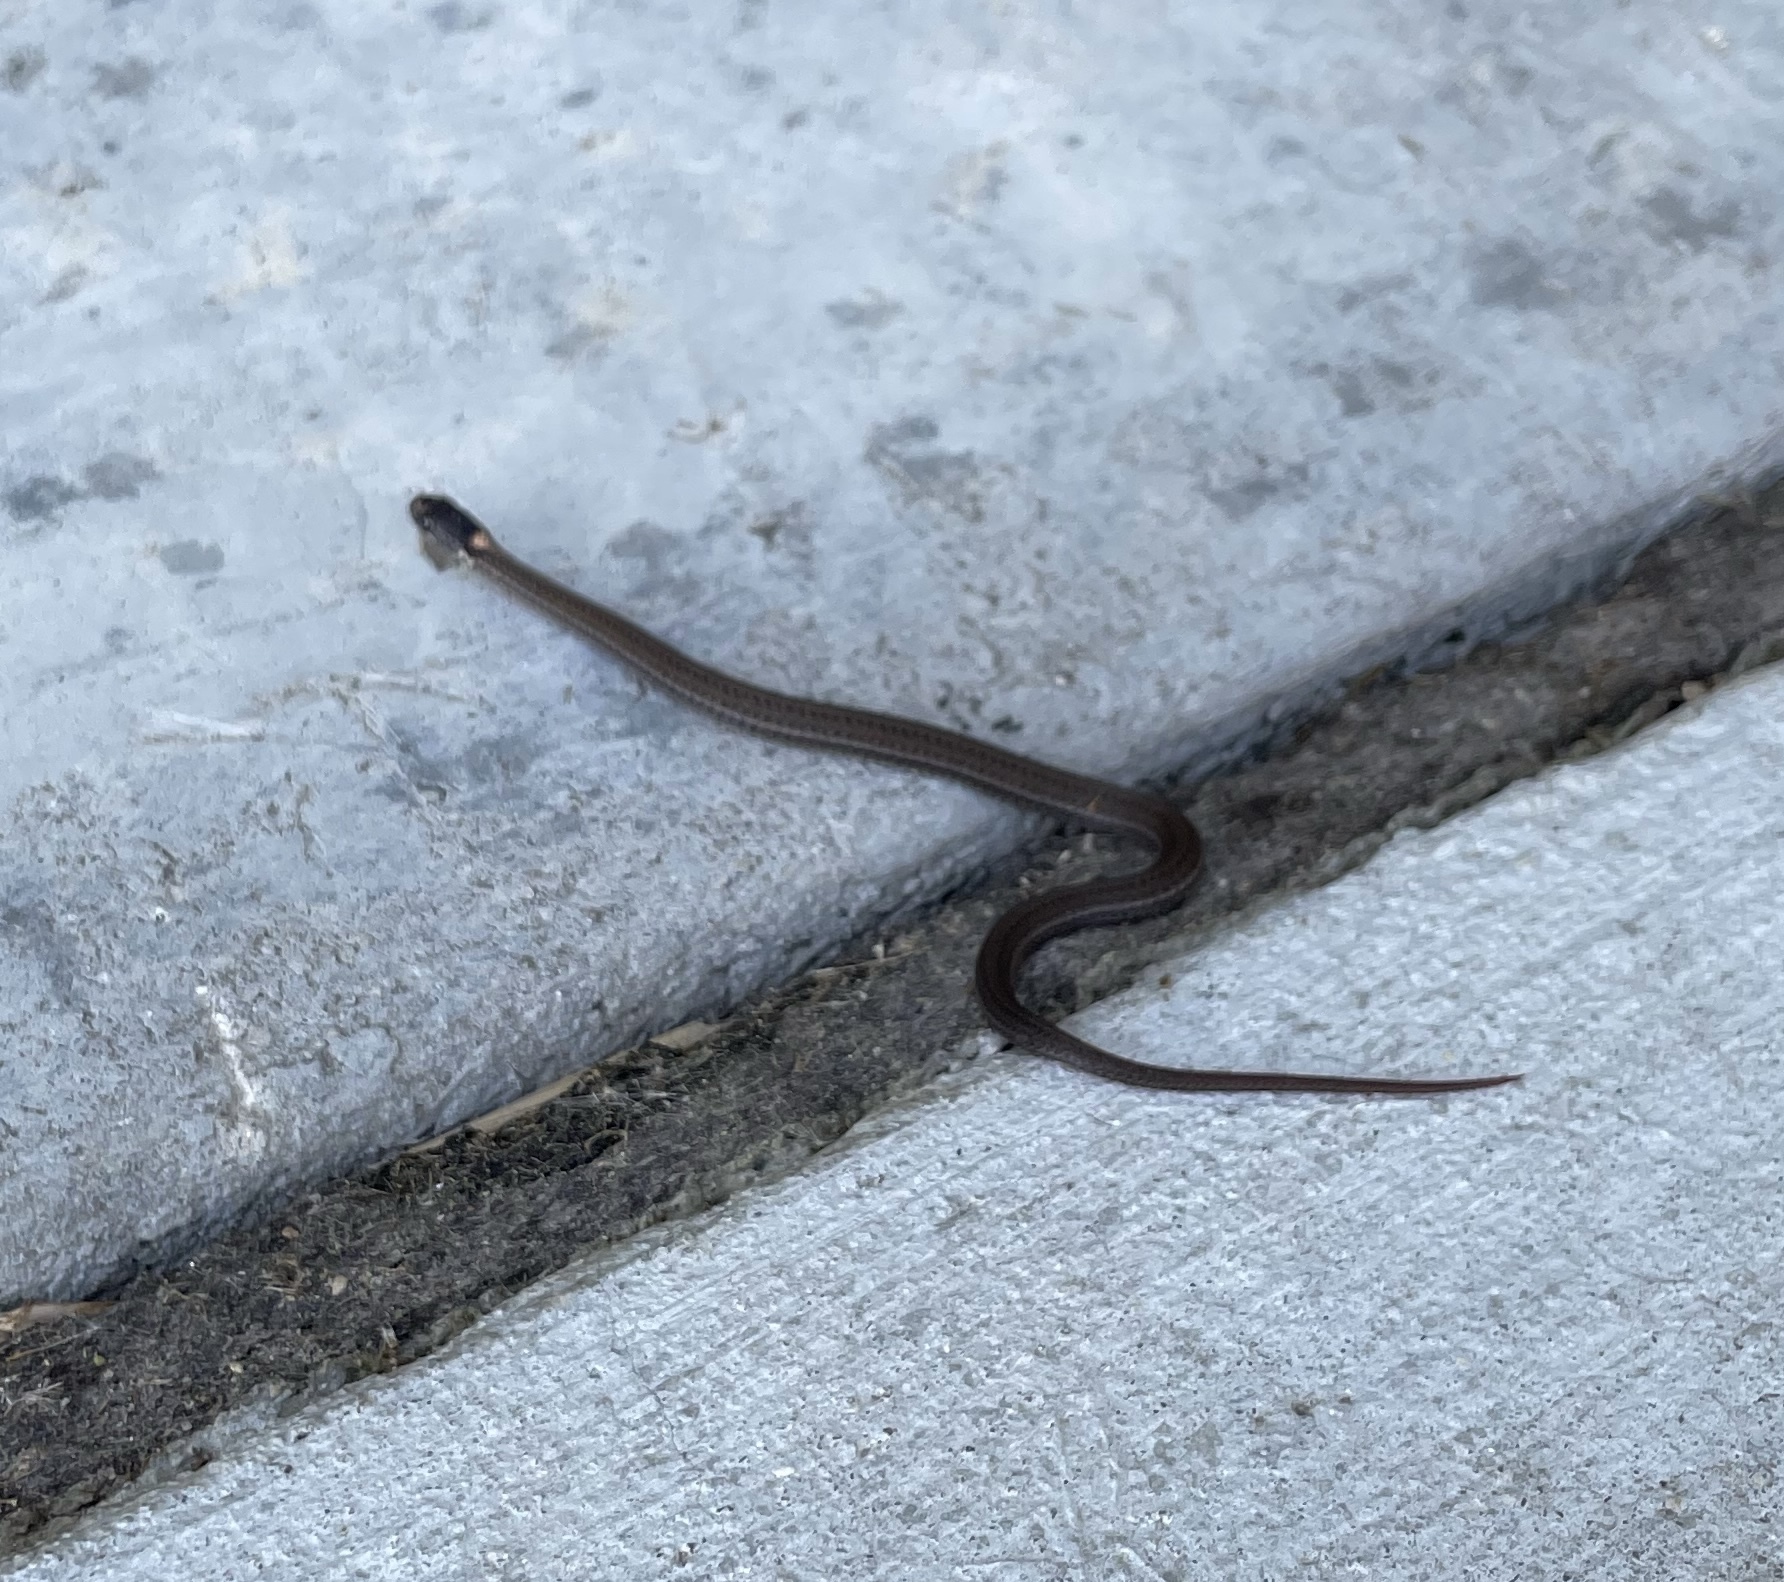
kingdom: Animalia
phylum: Chordata
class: Squamata
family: Colubridae
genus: Storeria
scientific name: Storeria occipitomaculata
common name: Redbelly snake
